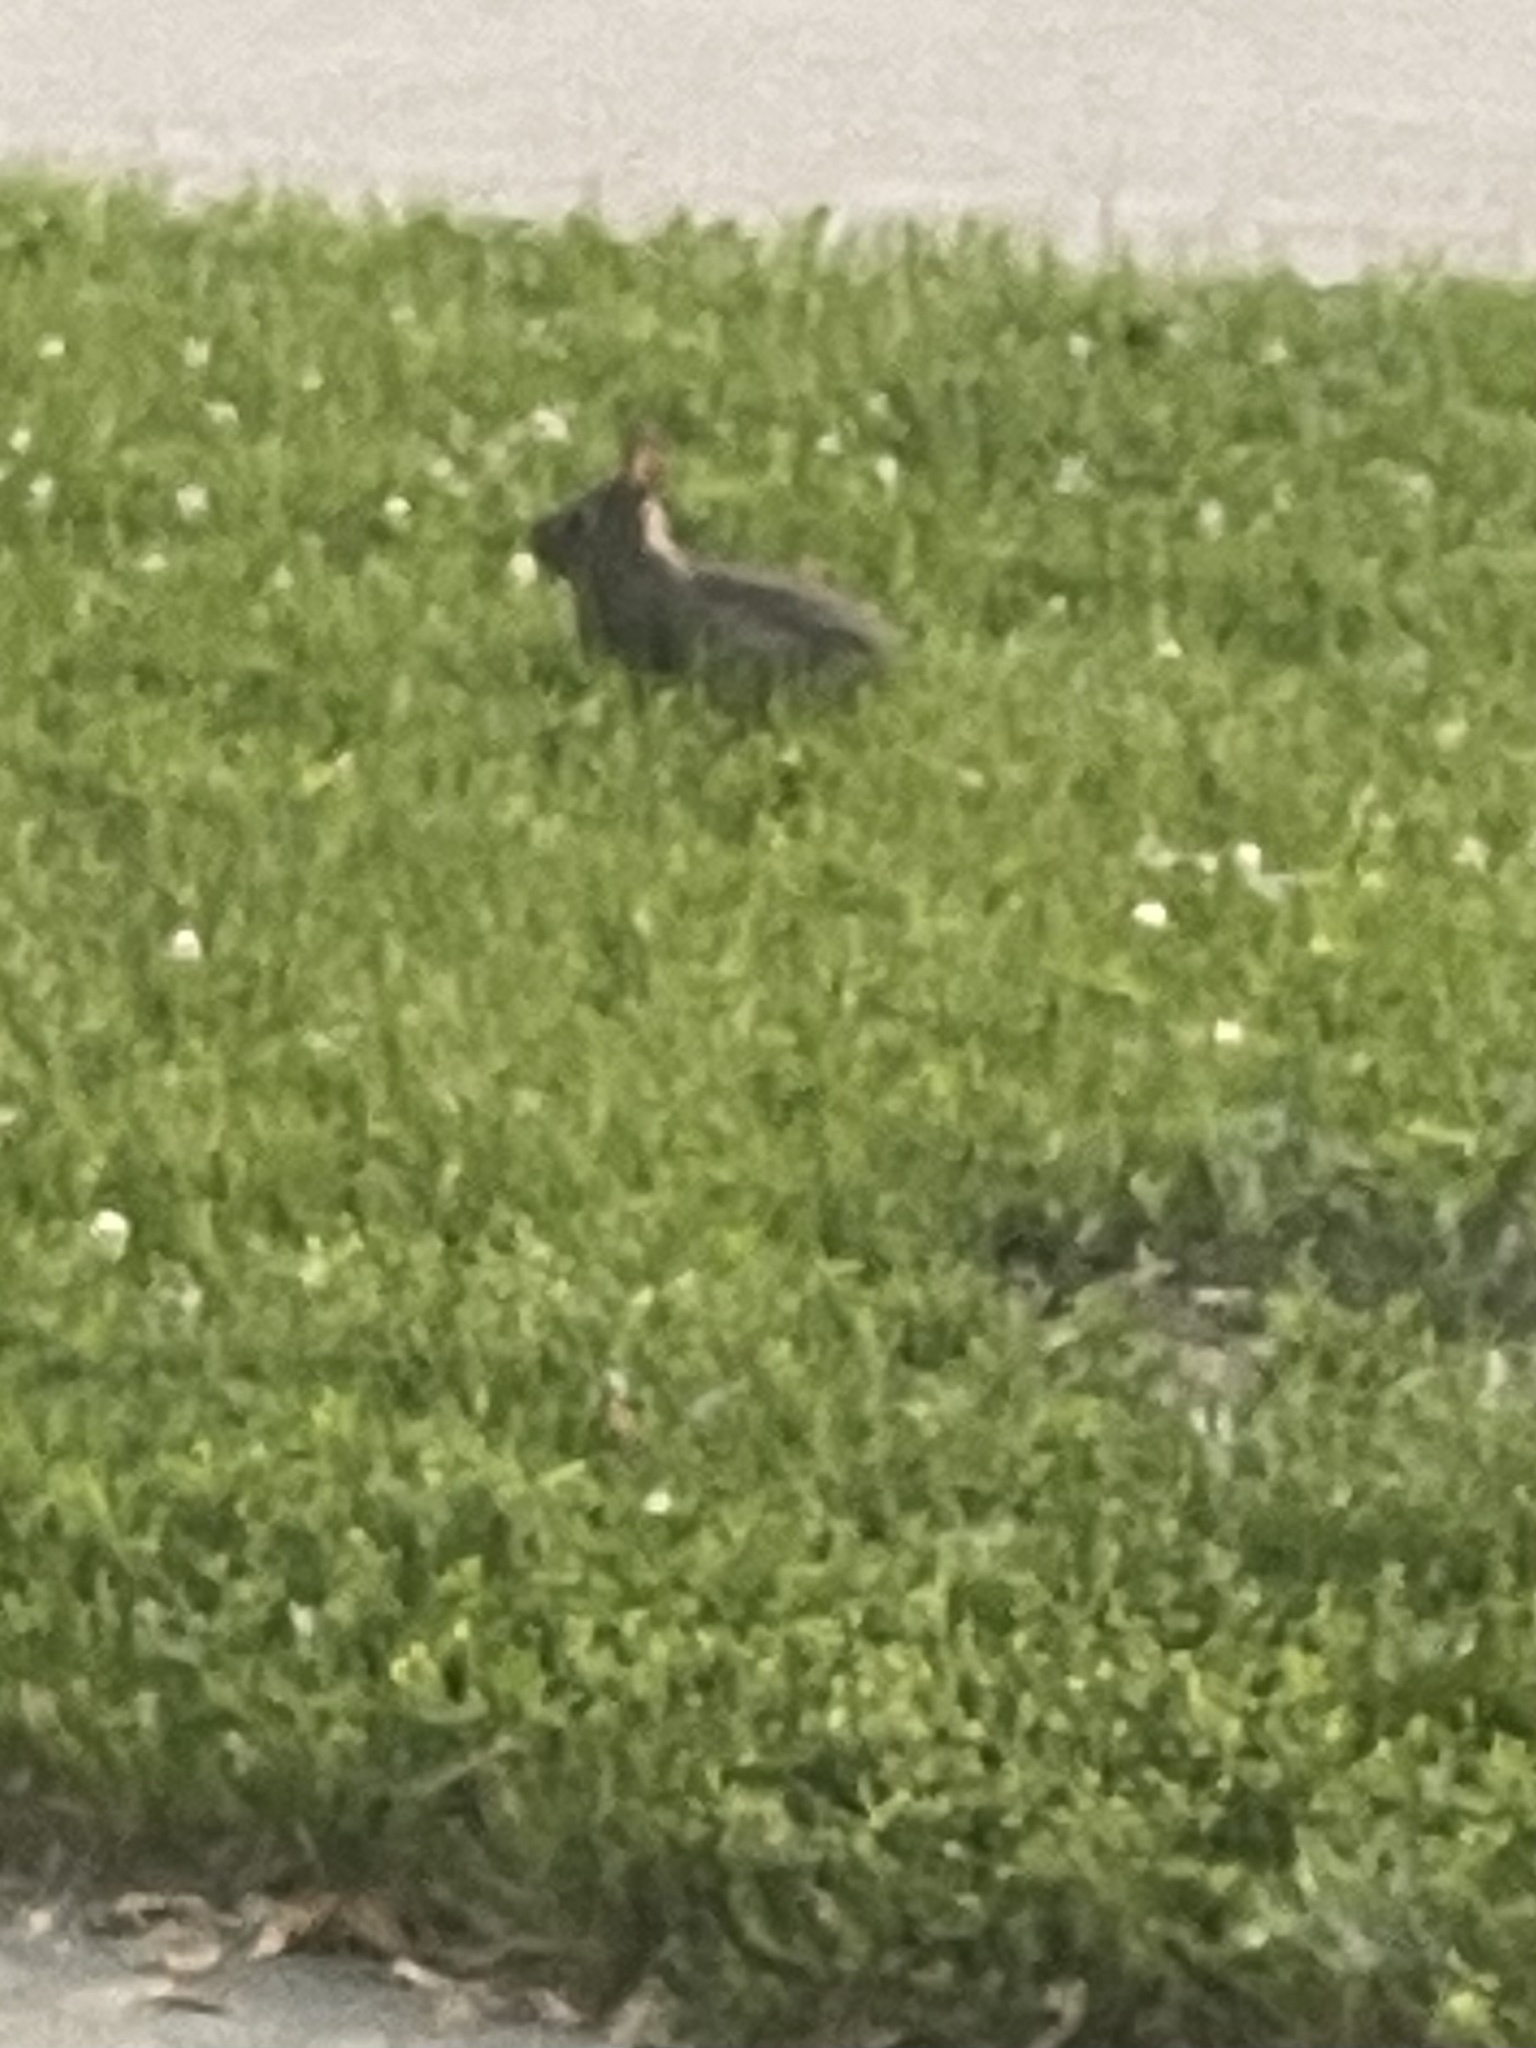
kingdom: Animalia
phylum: Chordata
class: Mammalia
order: Lagomorpha
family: Leporidae
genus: Sylvilagus
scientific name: Sylvilagus floridanus
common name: Eastern cottontail
